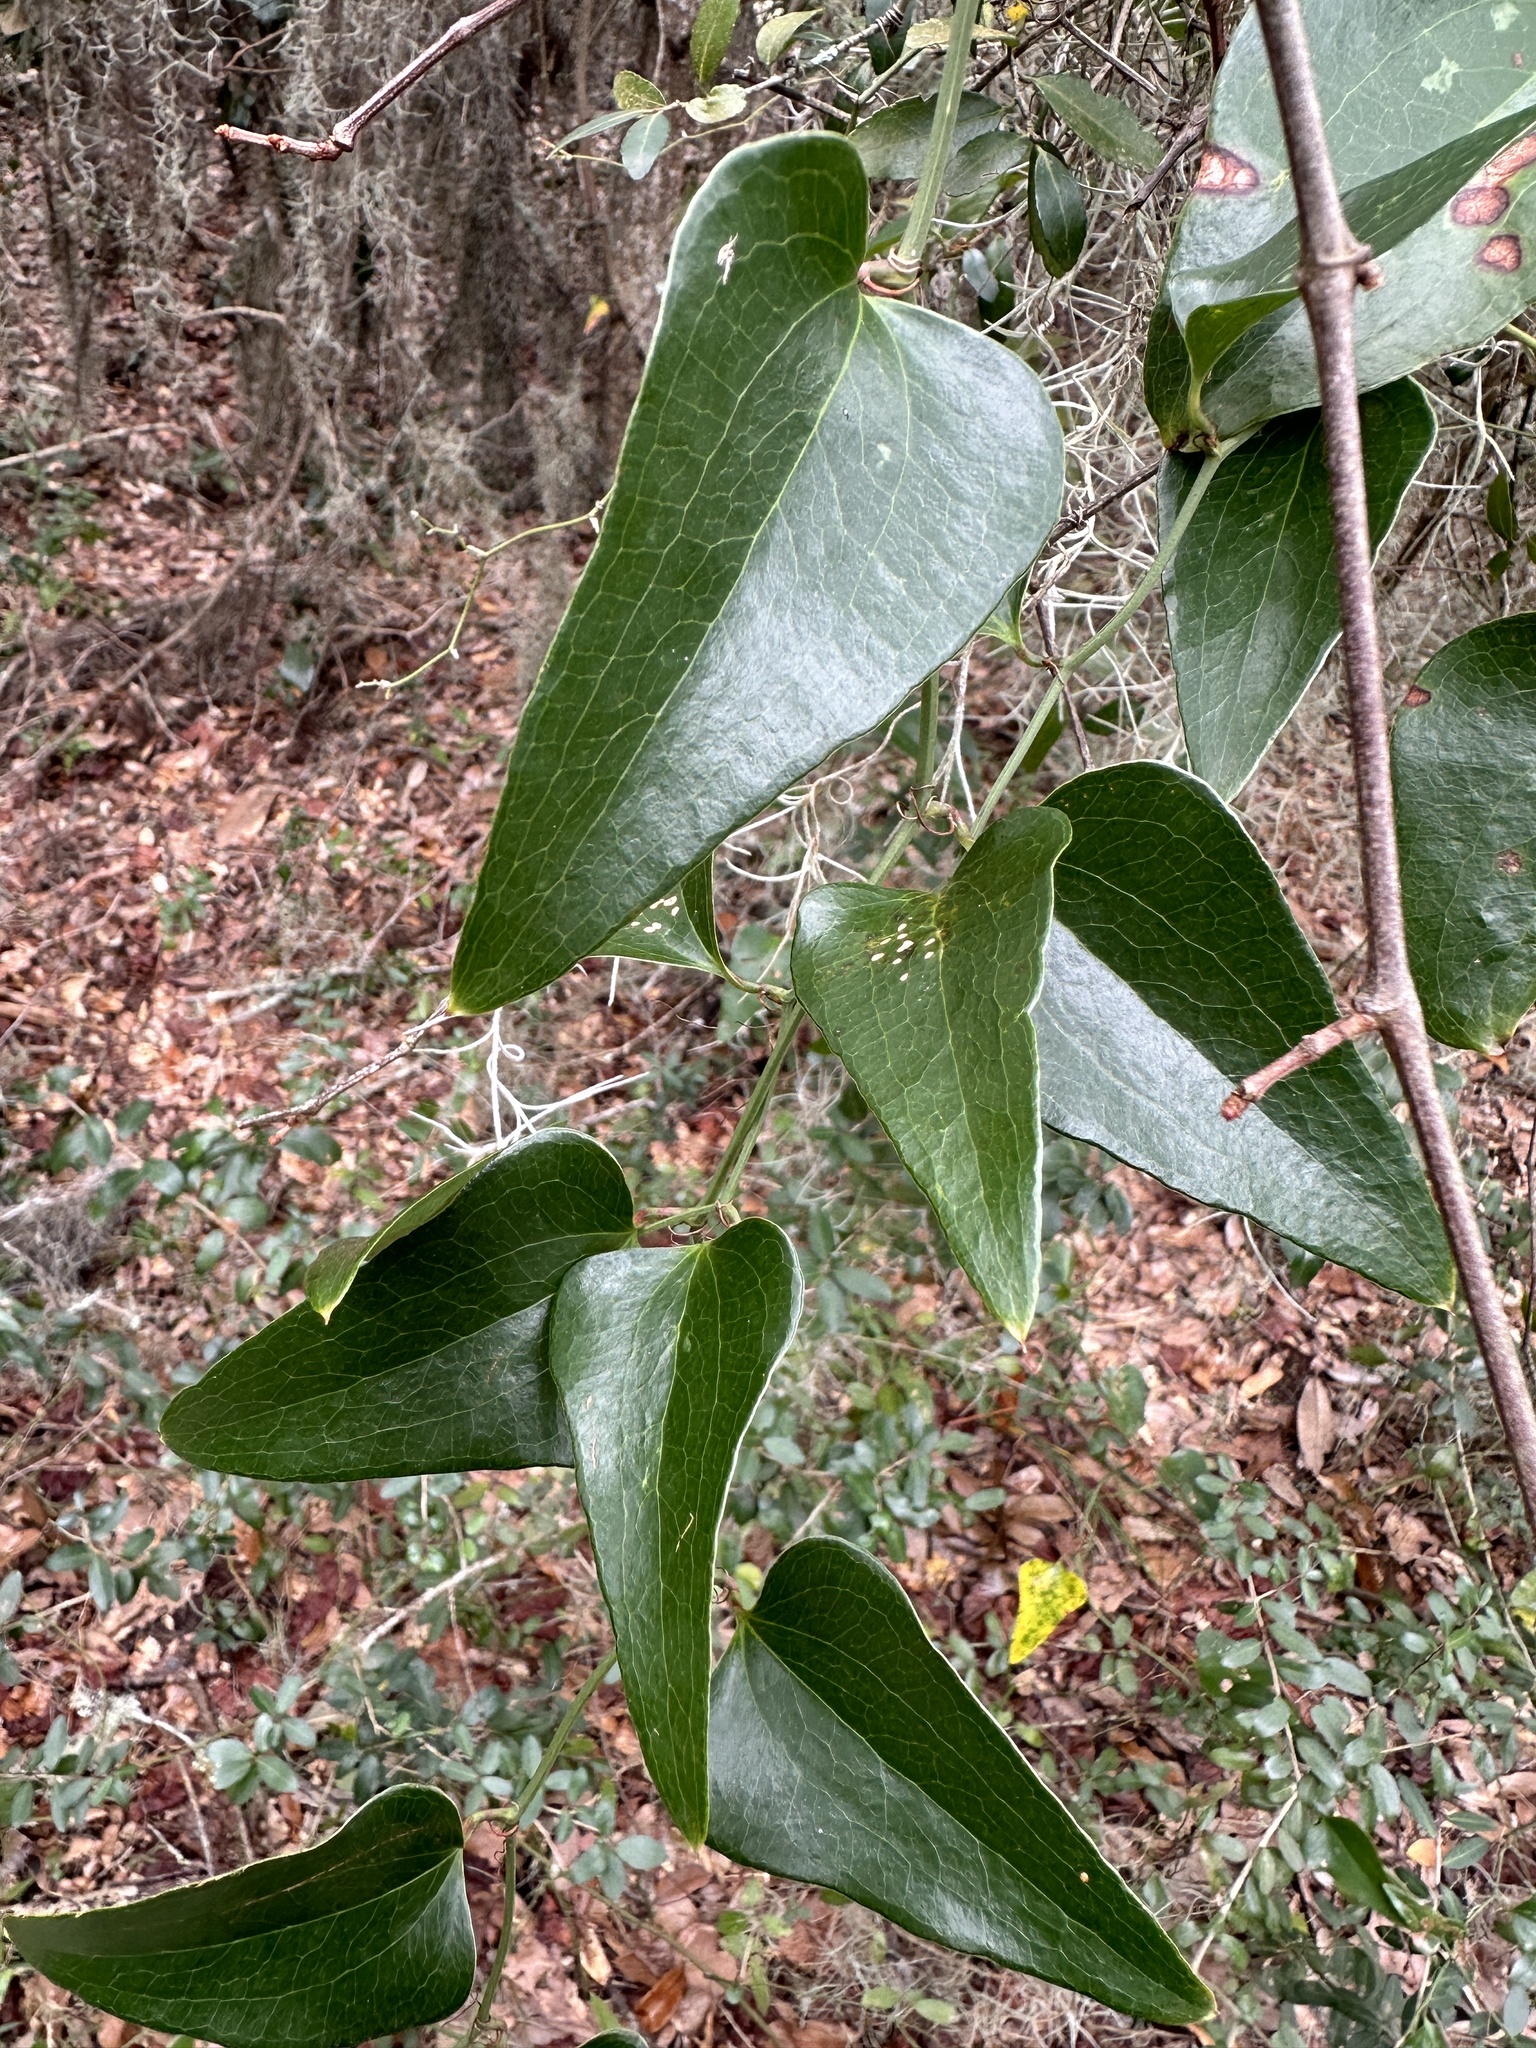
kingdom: Plantae
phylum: Tracheophyta
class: Liliopsida
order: Liliales
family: Smilacaceae
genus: Smilax
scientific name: Smilax auriculata
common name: Wild bamboo
